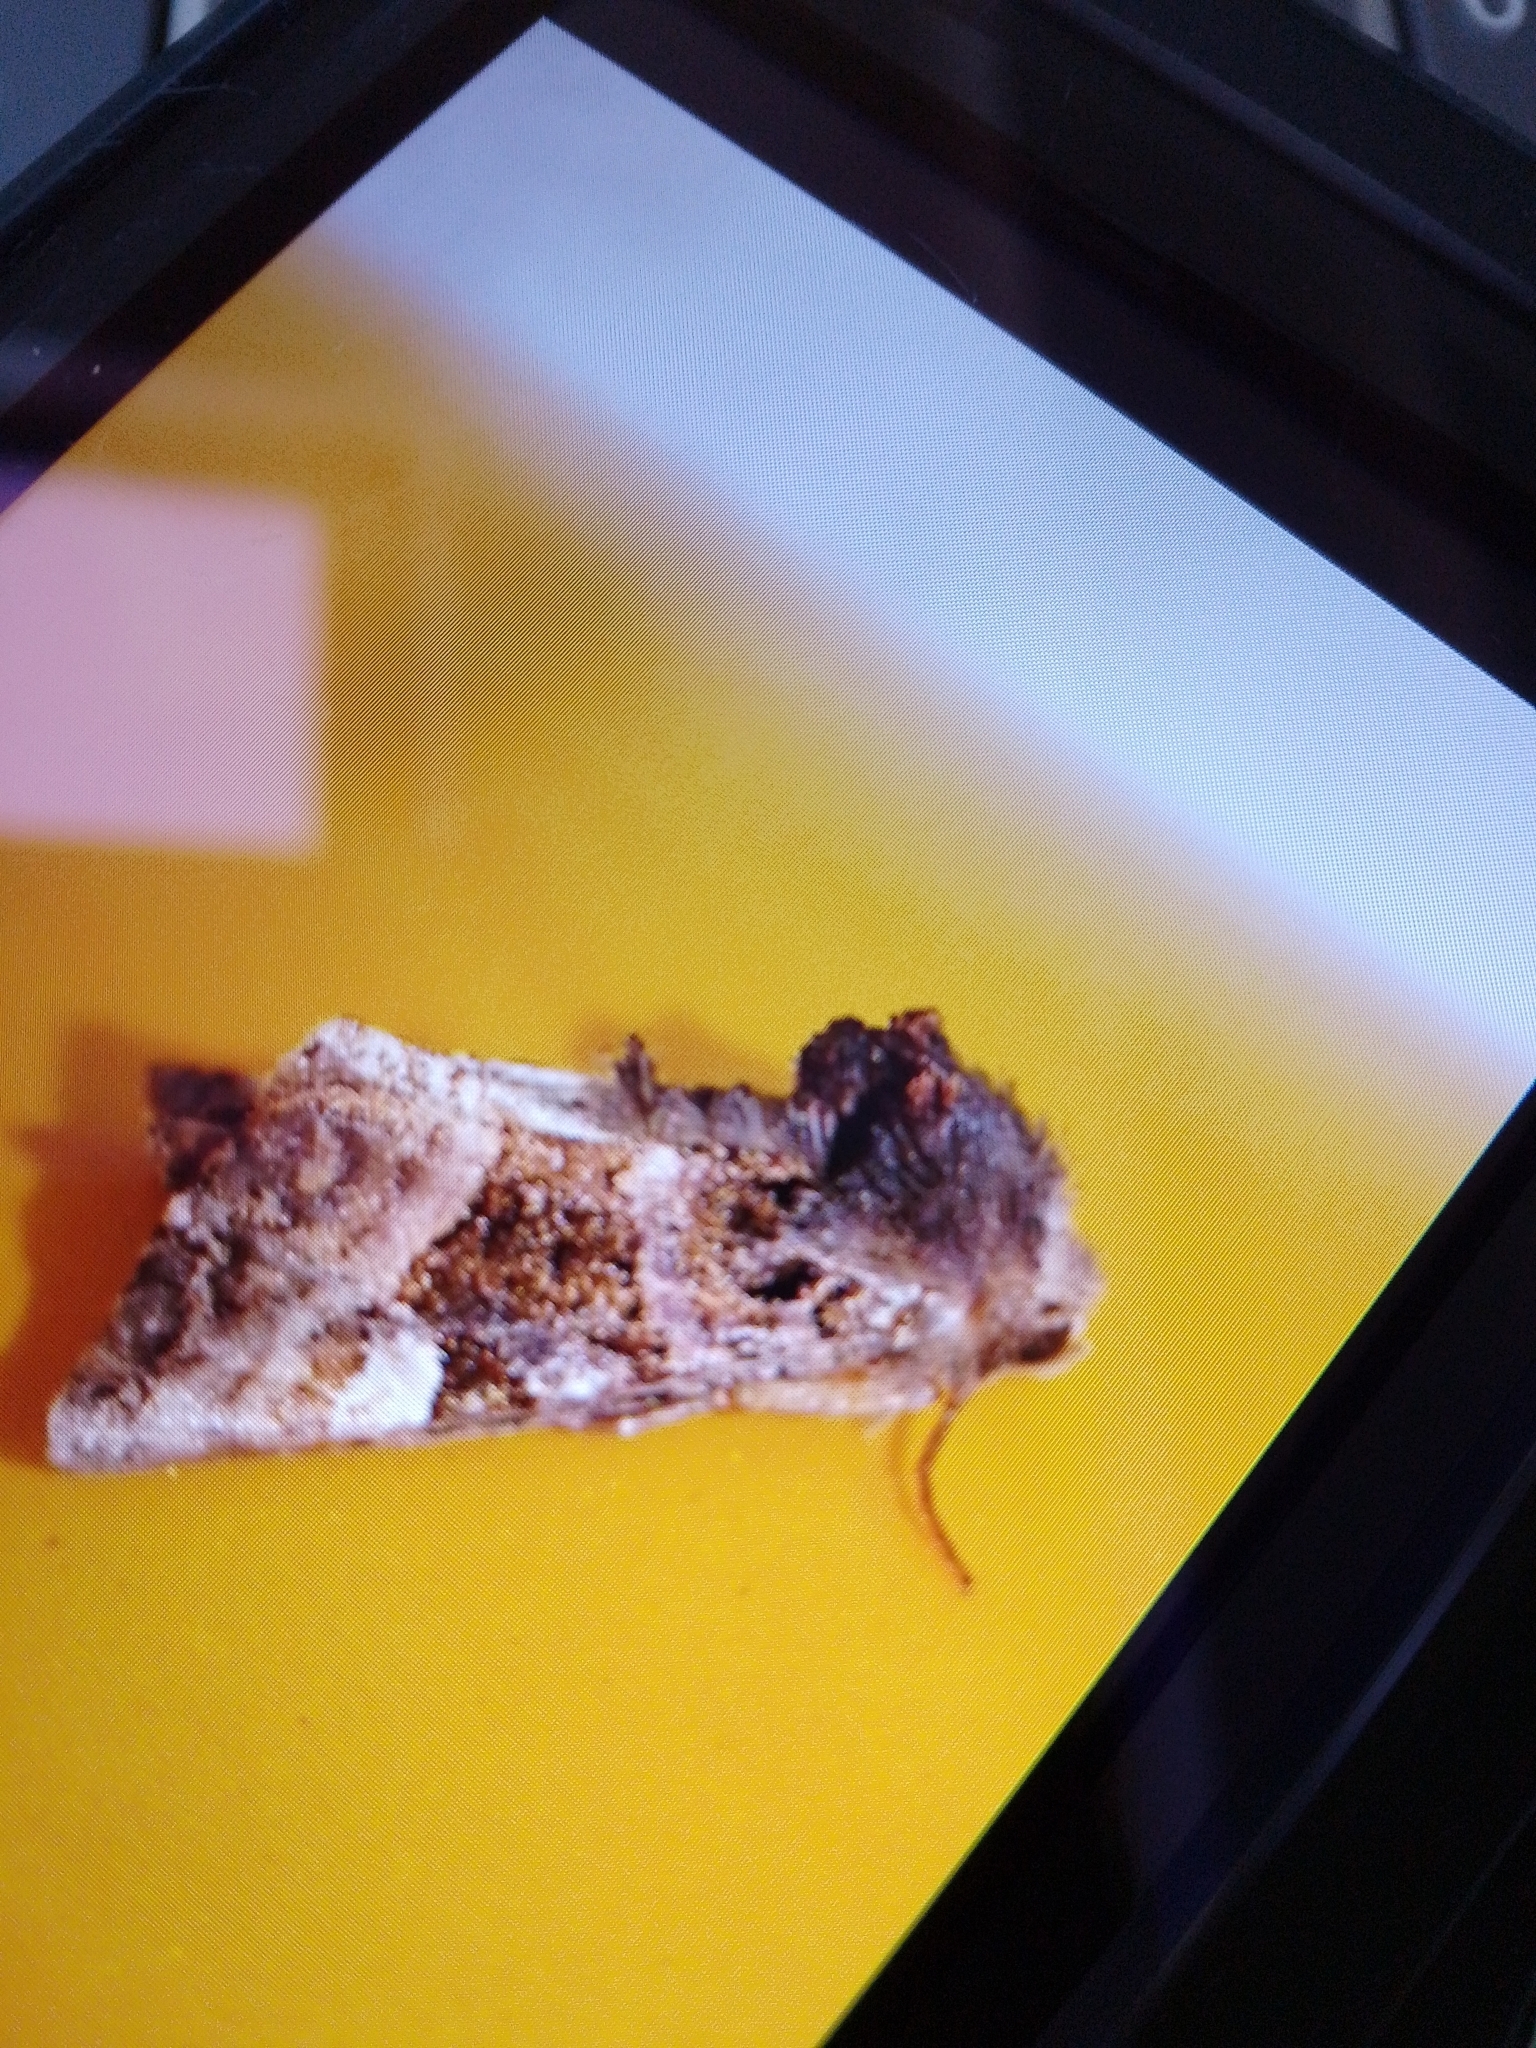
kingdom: Animalia
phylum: Arthropoda
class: Insecta
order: Lepidoptera
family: Noctuidae
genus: Euplexia
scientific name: Euplexia lucipara
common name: Small angle shades
